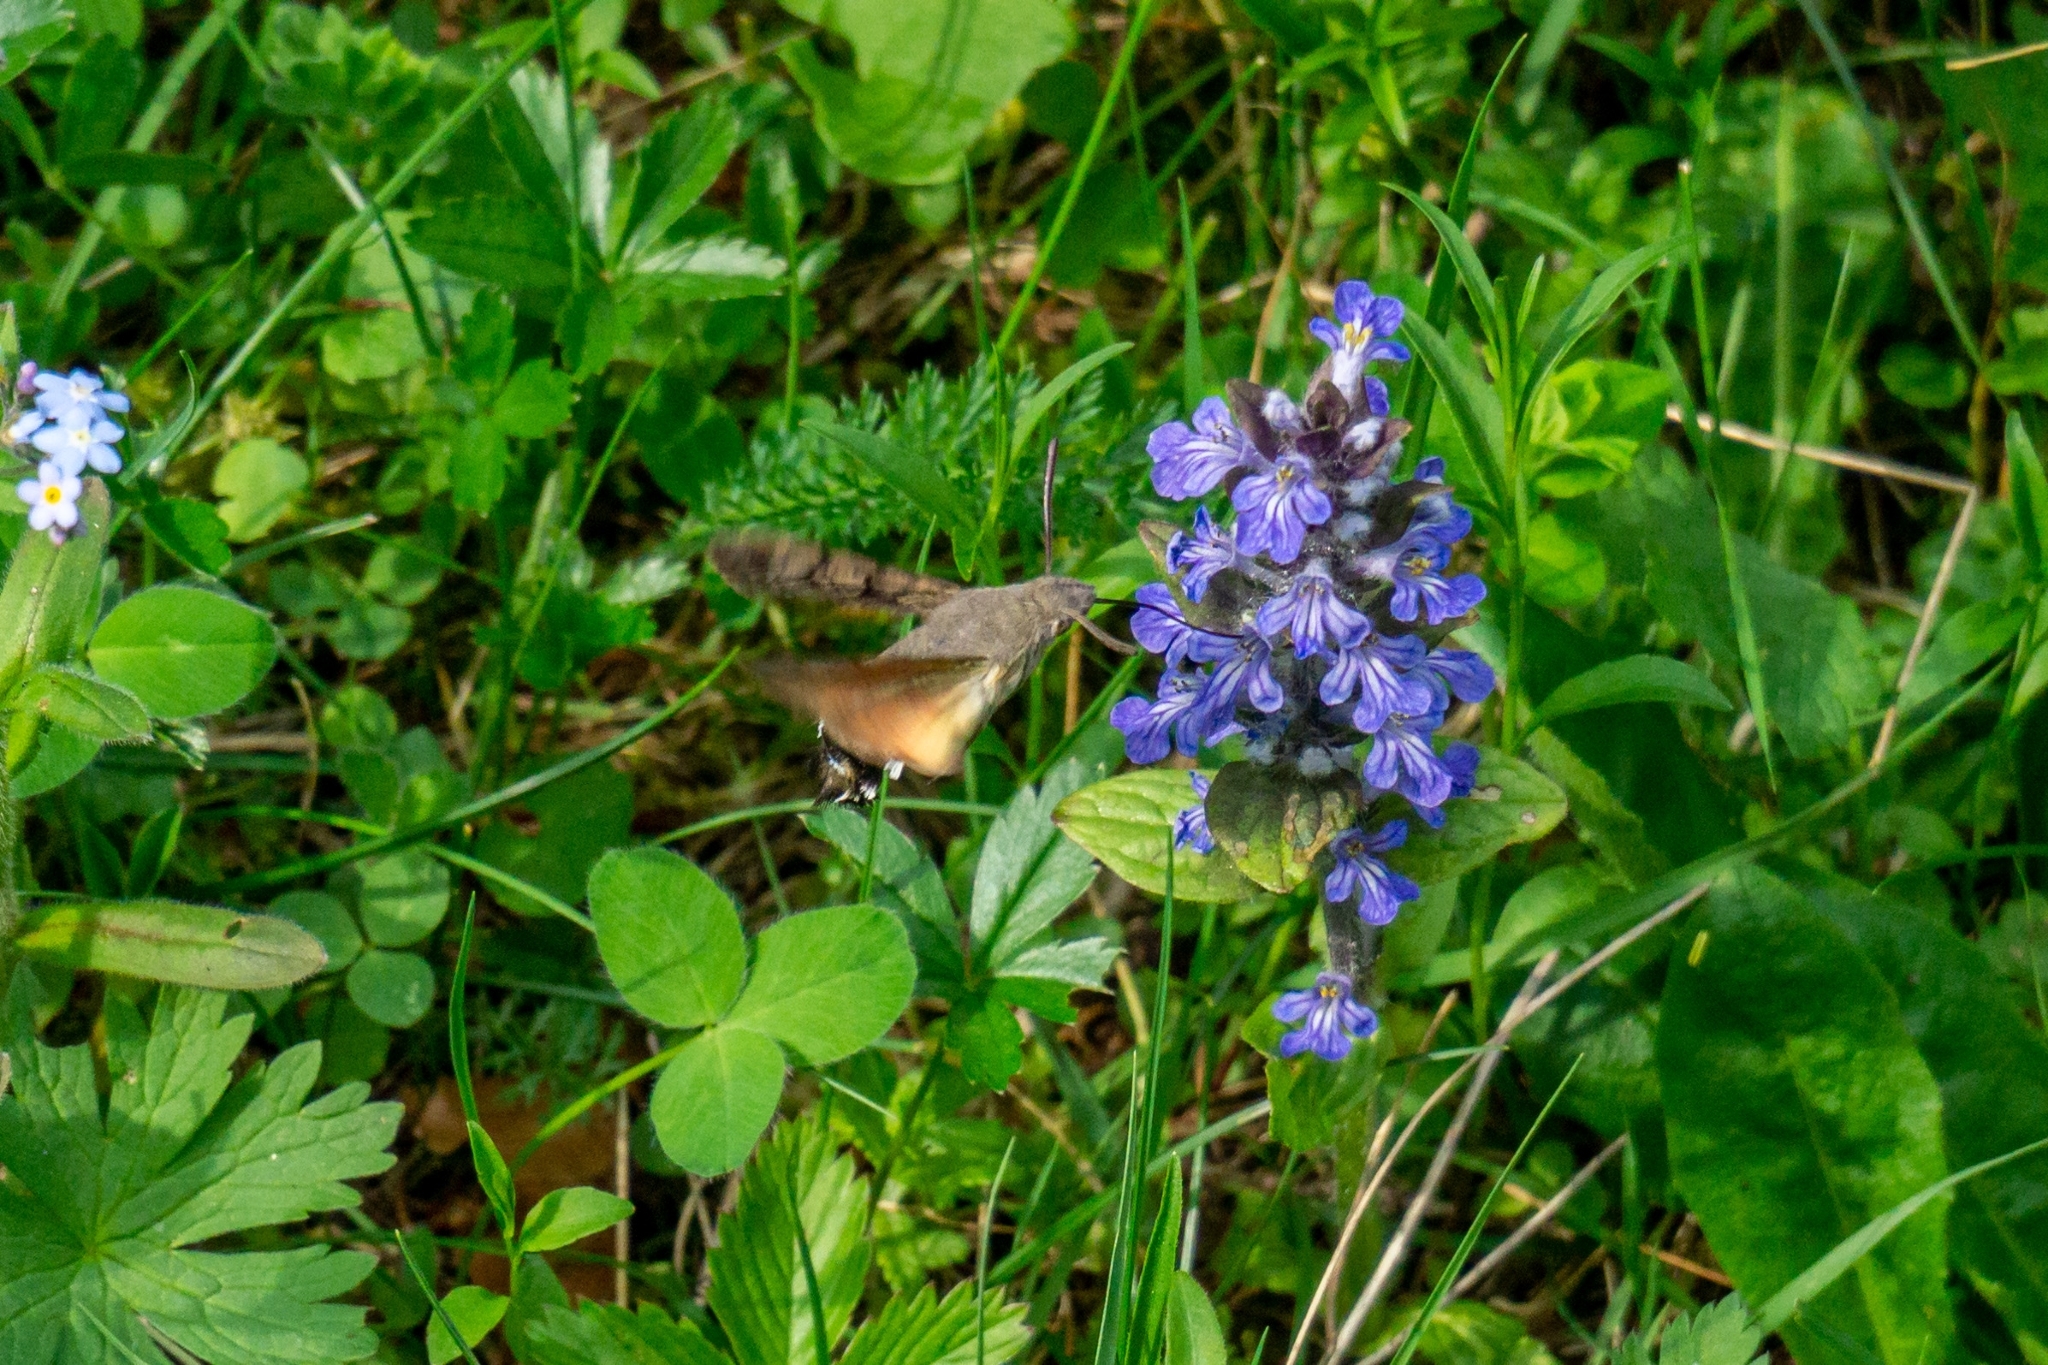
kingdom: Animalia
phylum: Arthropoda
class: Insecta
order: Lepidoptera
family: Sphingidae
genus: Macroglossum
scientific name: Macroglossum stellatarum
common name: Humming-bird hawk-moth
